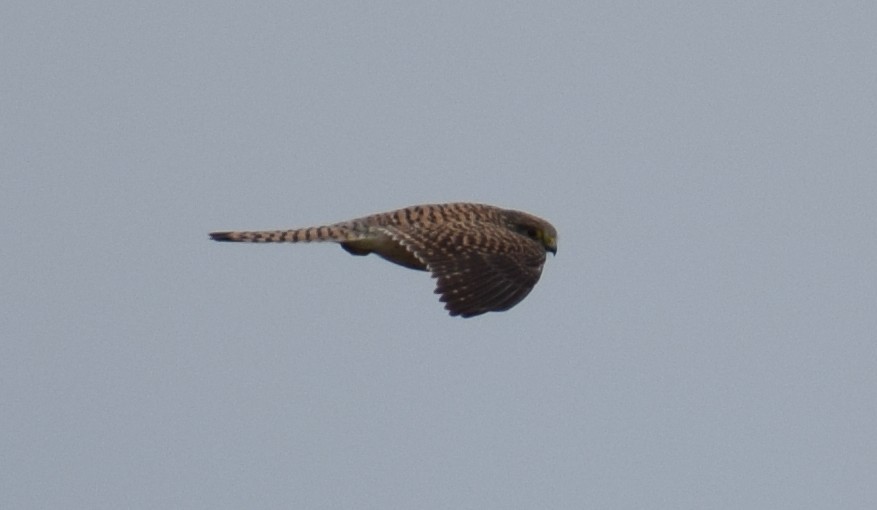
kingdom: Animalia
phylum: Chordata
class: Aves
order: Falconiformes
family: Falconidae
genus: Falco
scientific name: Falco tinnunculus
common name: Common kestrel
